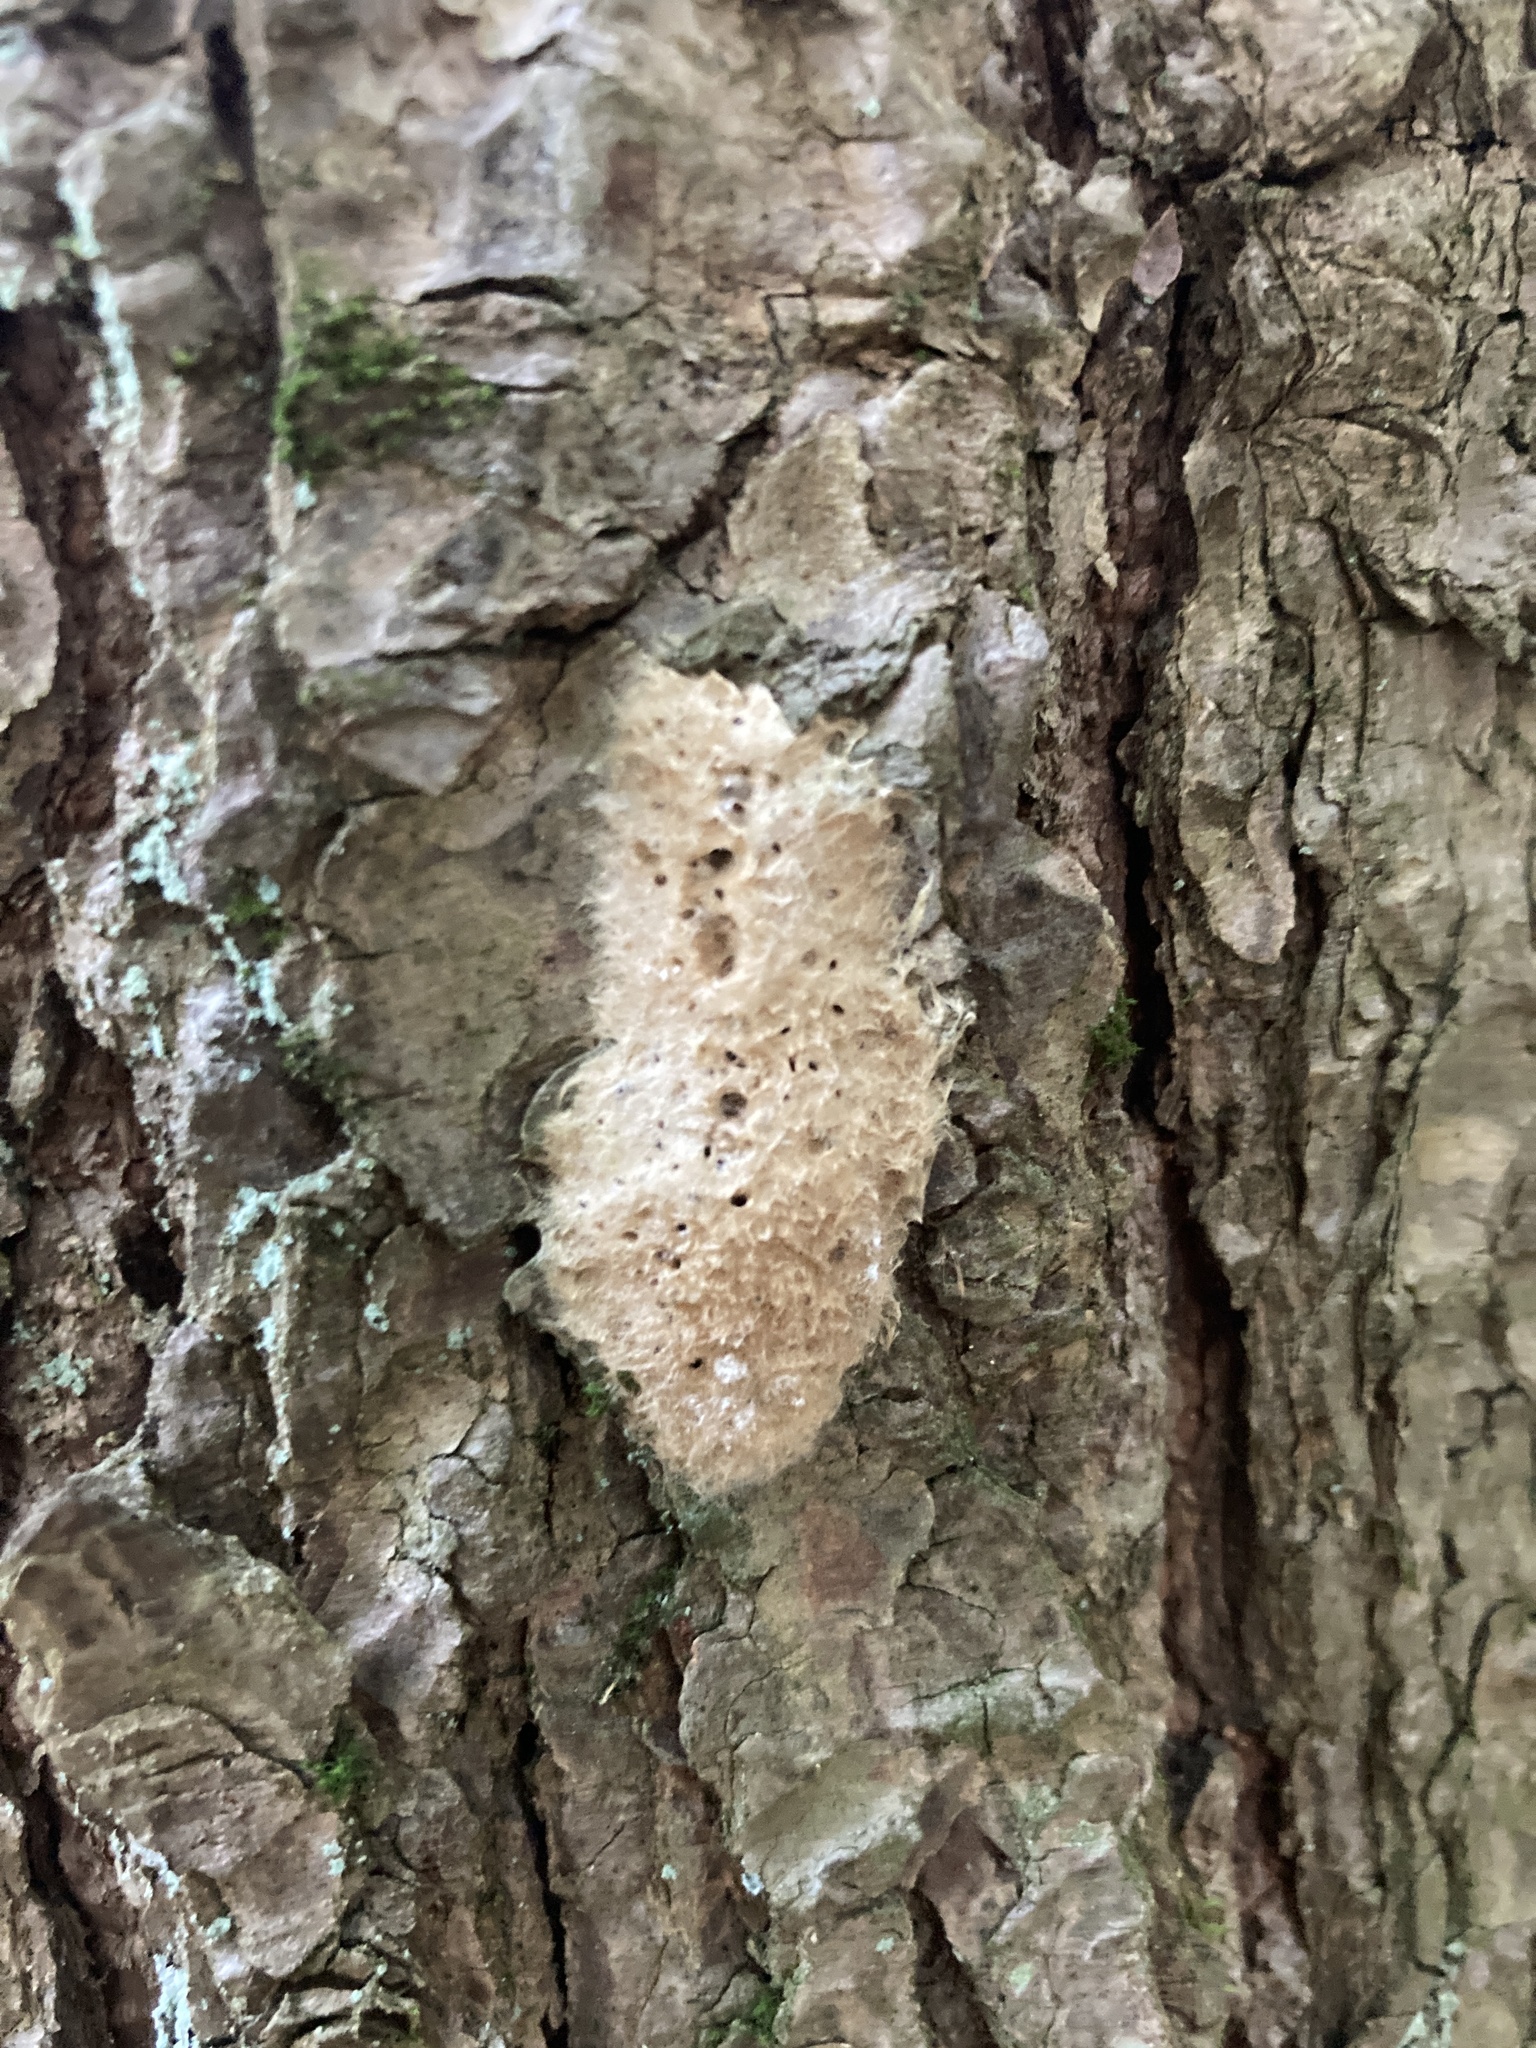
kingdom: Animalia
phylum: Arthropoda
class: Insecta
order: Lepidoptera
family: Erebidae
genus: Lymantria
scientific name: Lymantria dispar
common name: Gypsy moth
